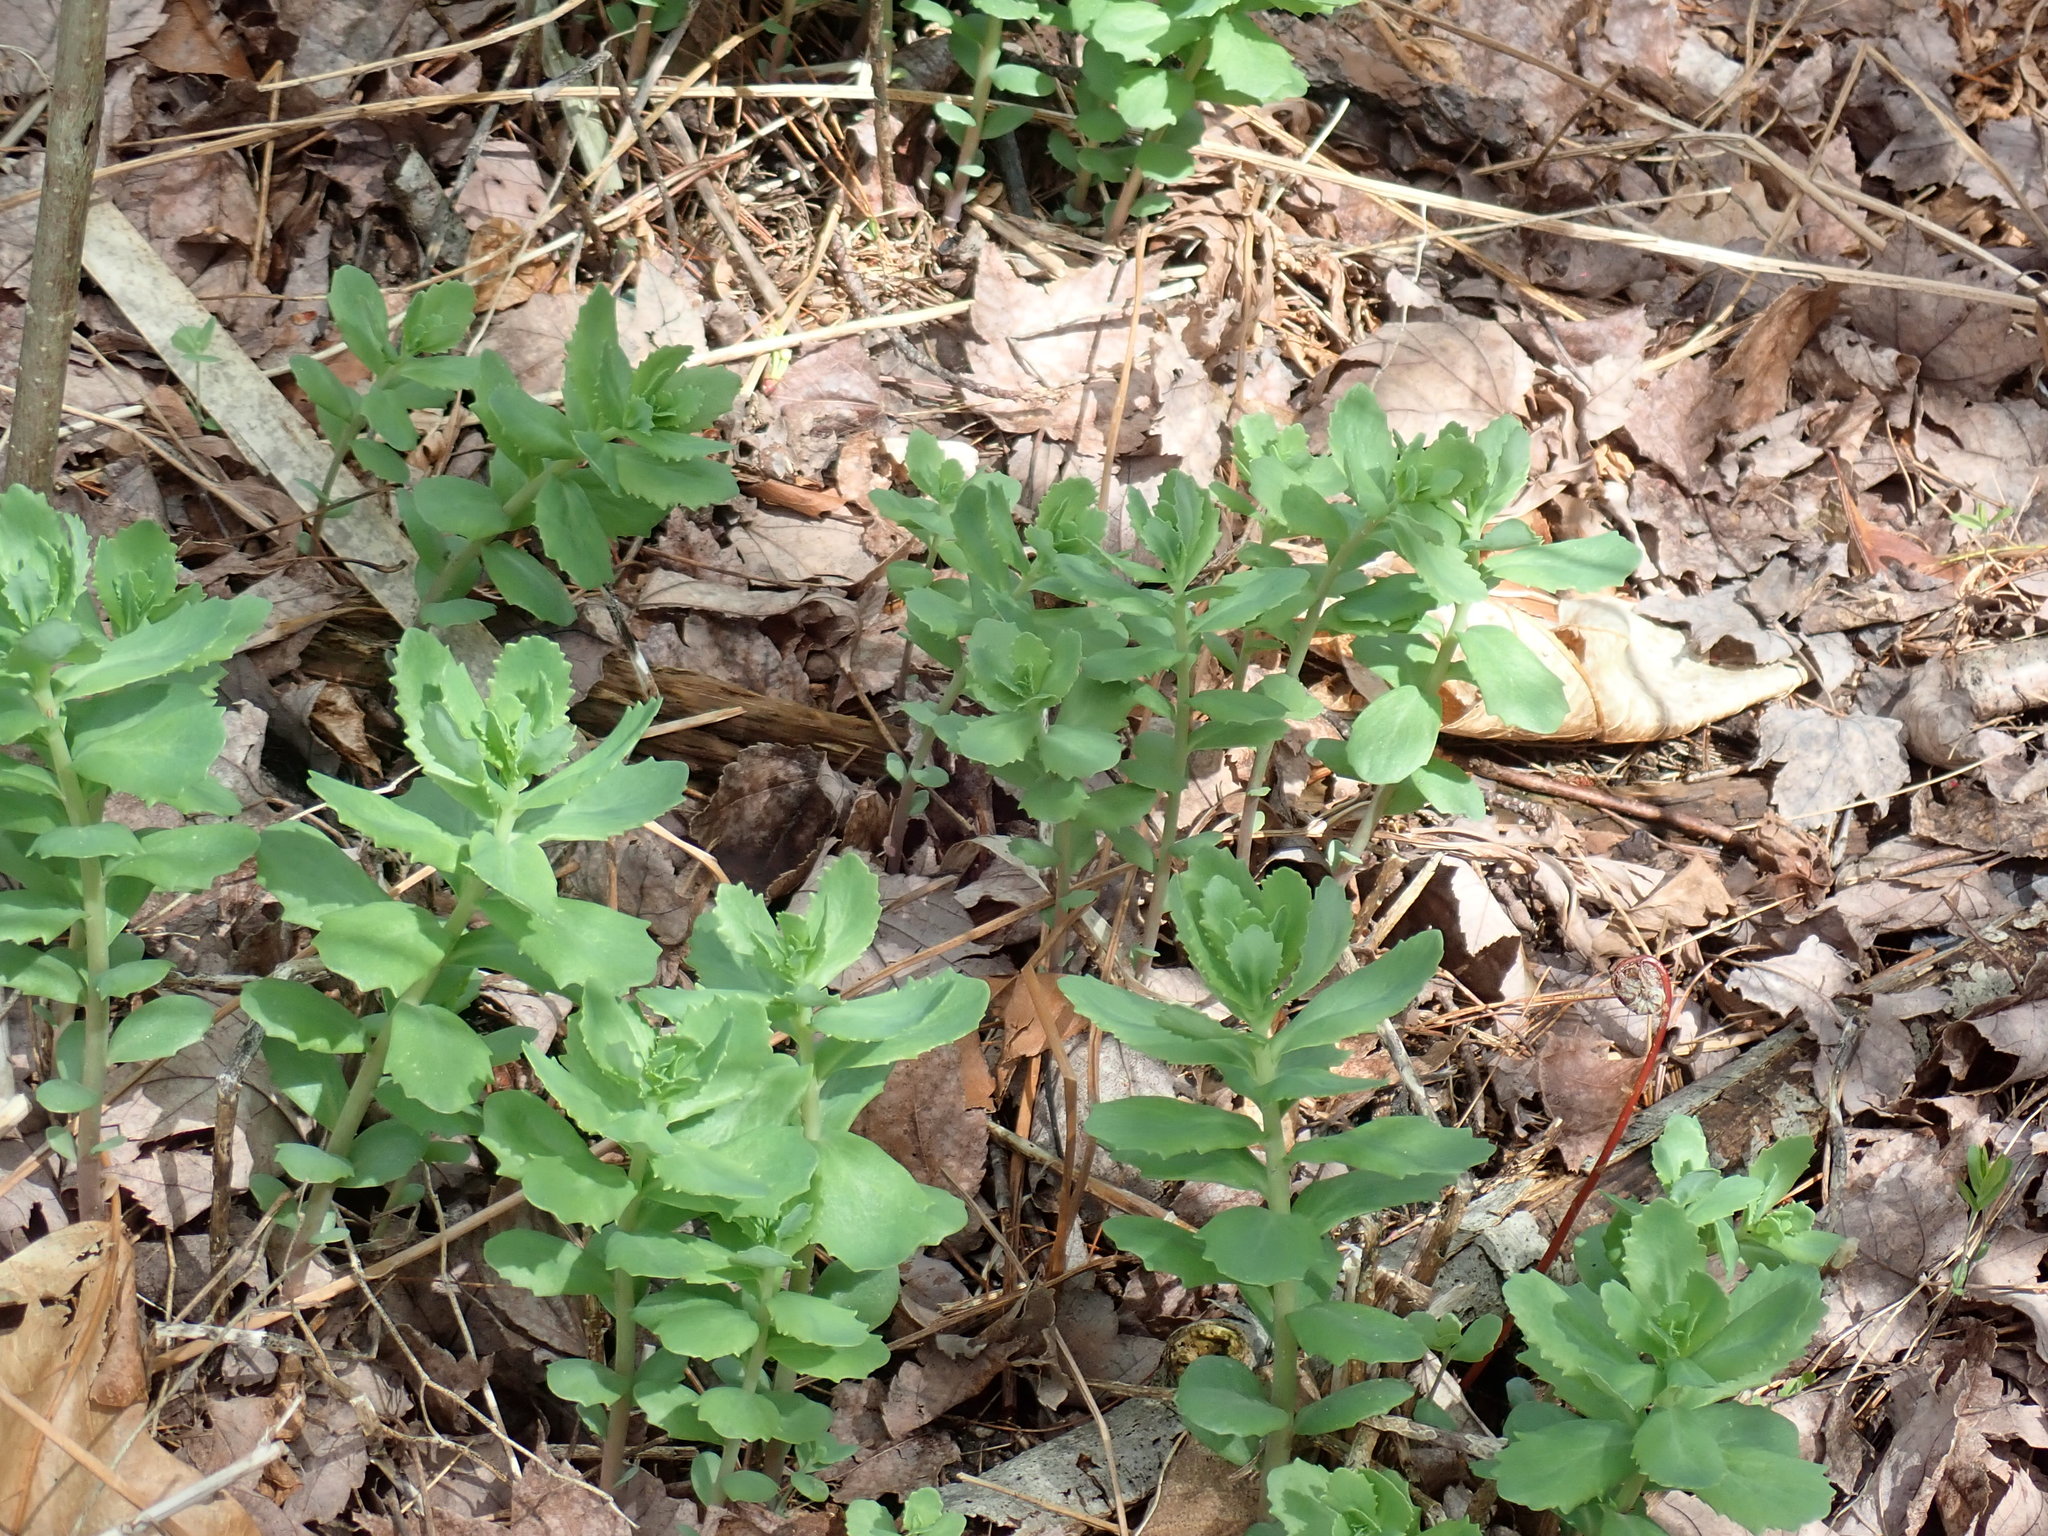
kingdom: Plantae
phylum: Tracheophyta
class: Magnoliopsida
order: Saxifragales
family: Crassulaceae
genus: Hylotelephium
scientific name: Hylotelephium telephium
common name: Live-forever
